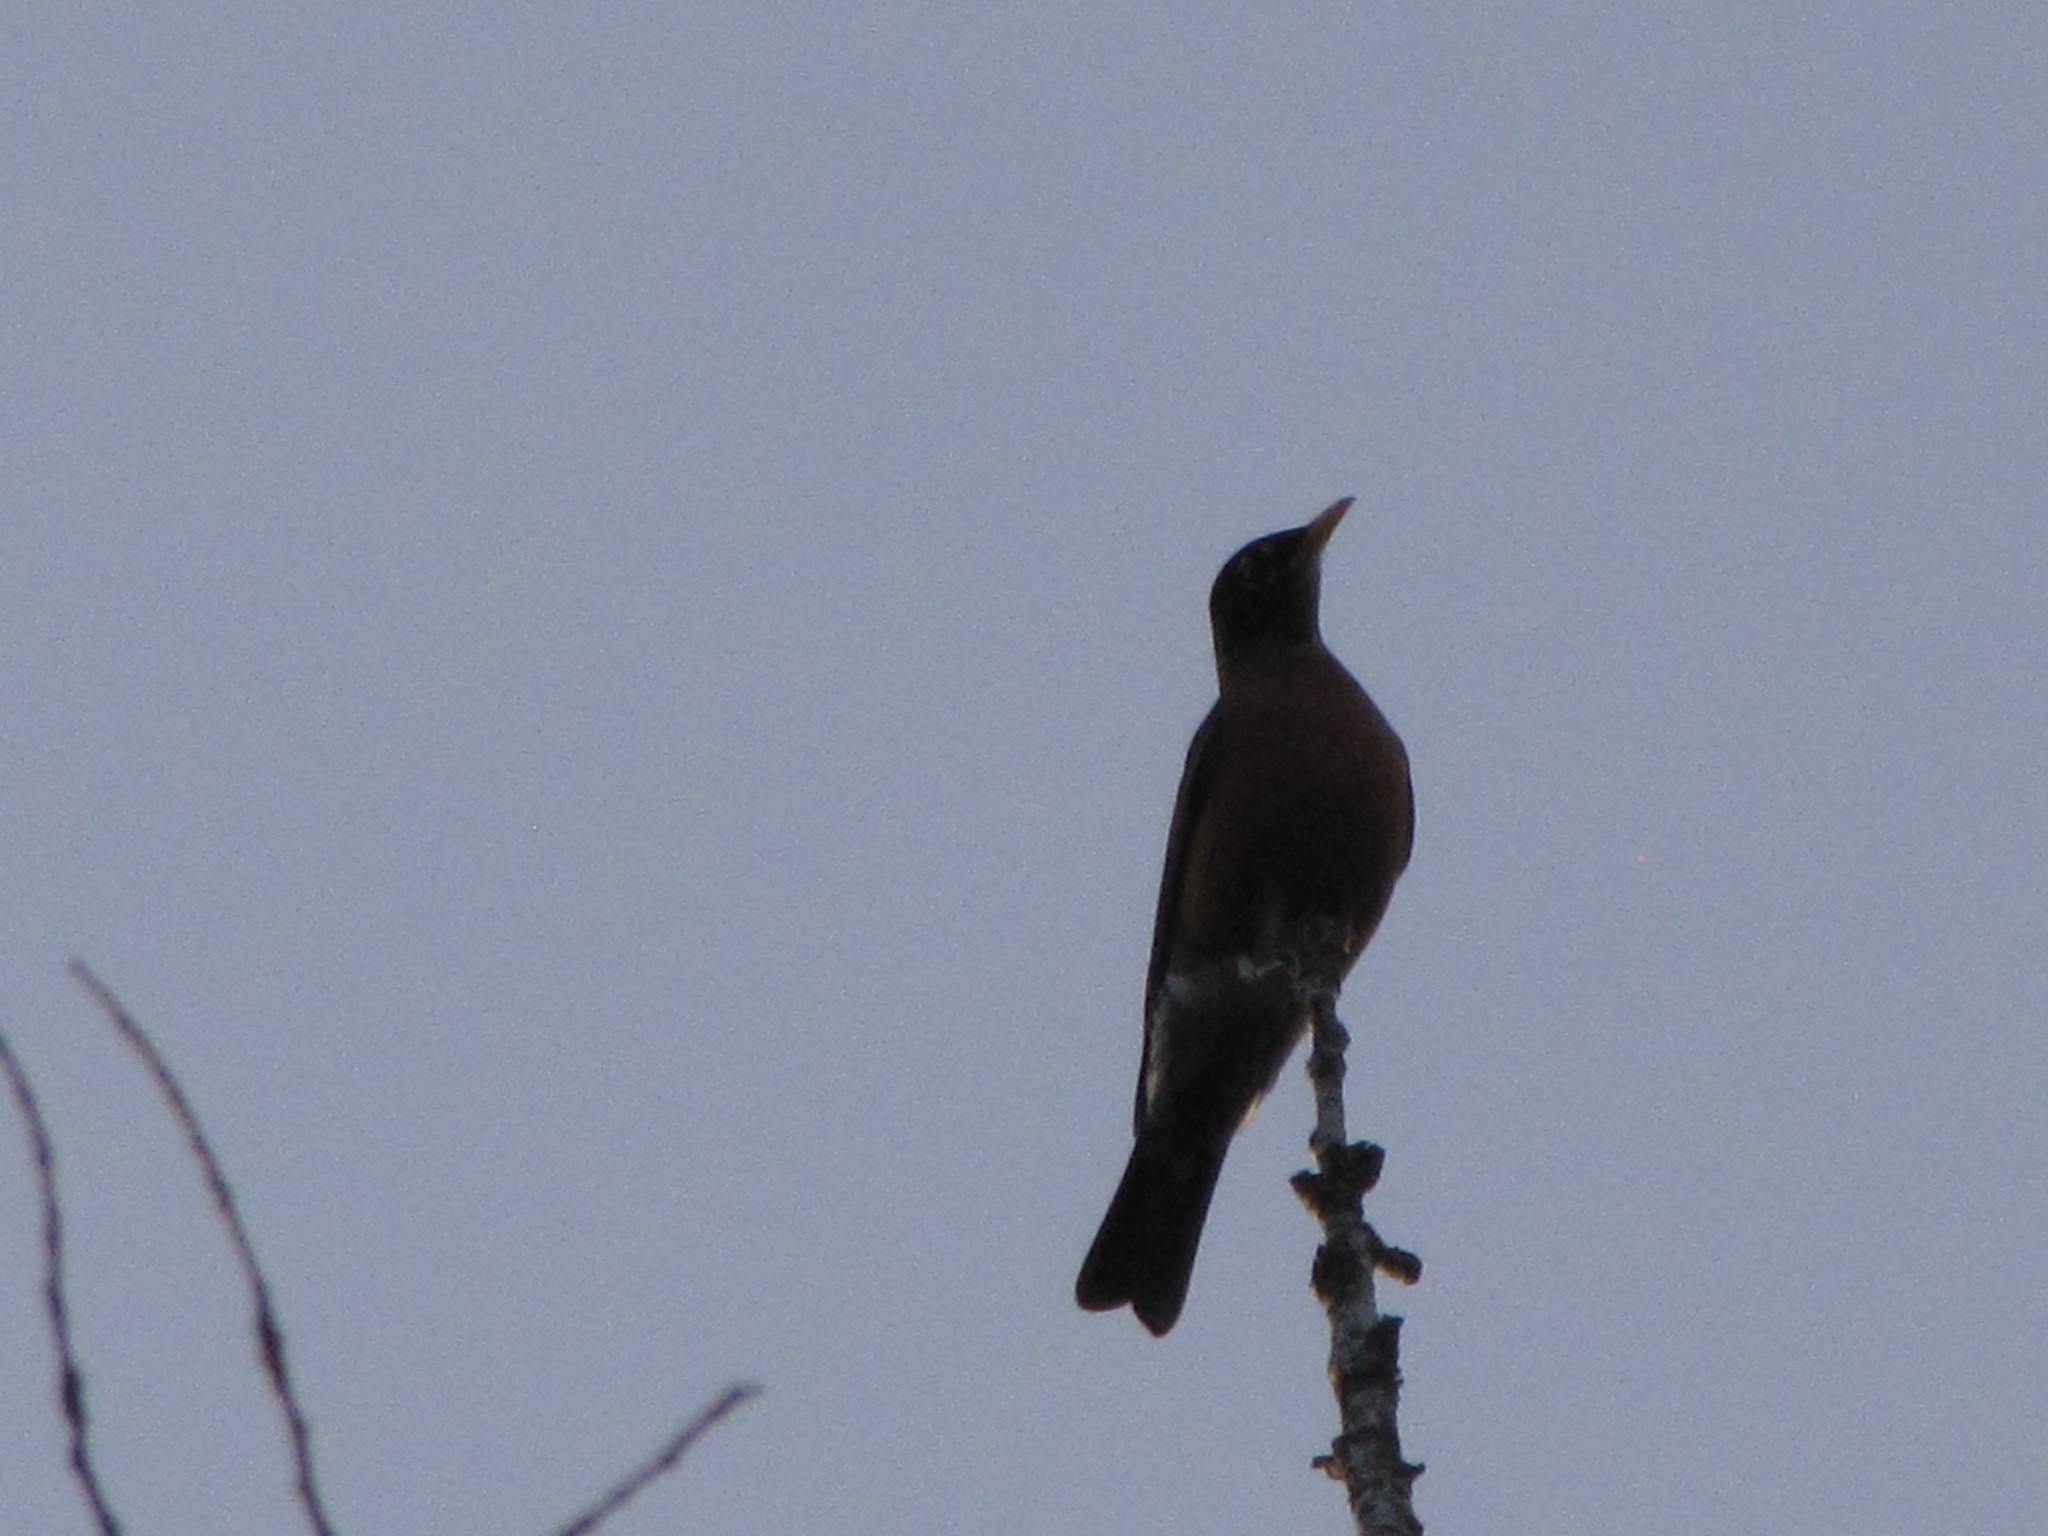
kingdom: Animalia
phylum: Chordata
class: Aves
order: Passeriformes
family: Turdidae
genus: Turdus
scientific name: Turdus migratorius
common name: American robin
